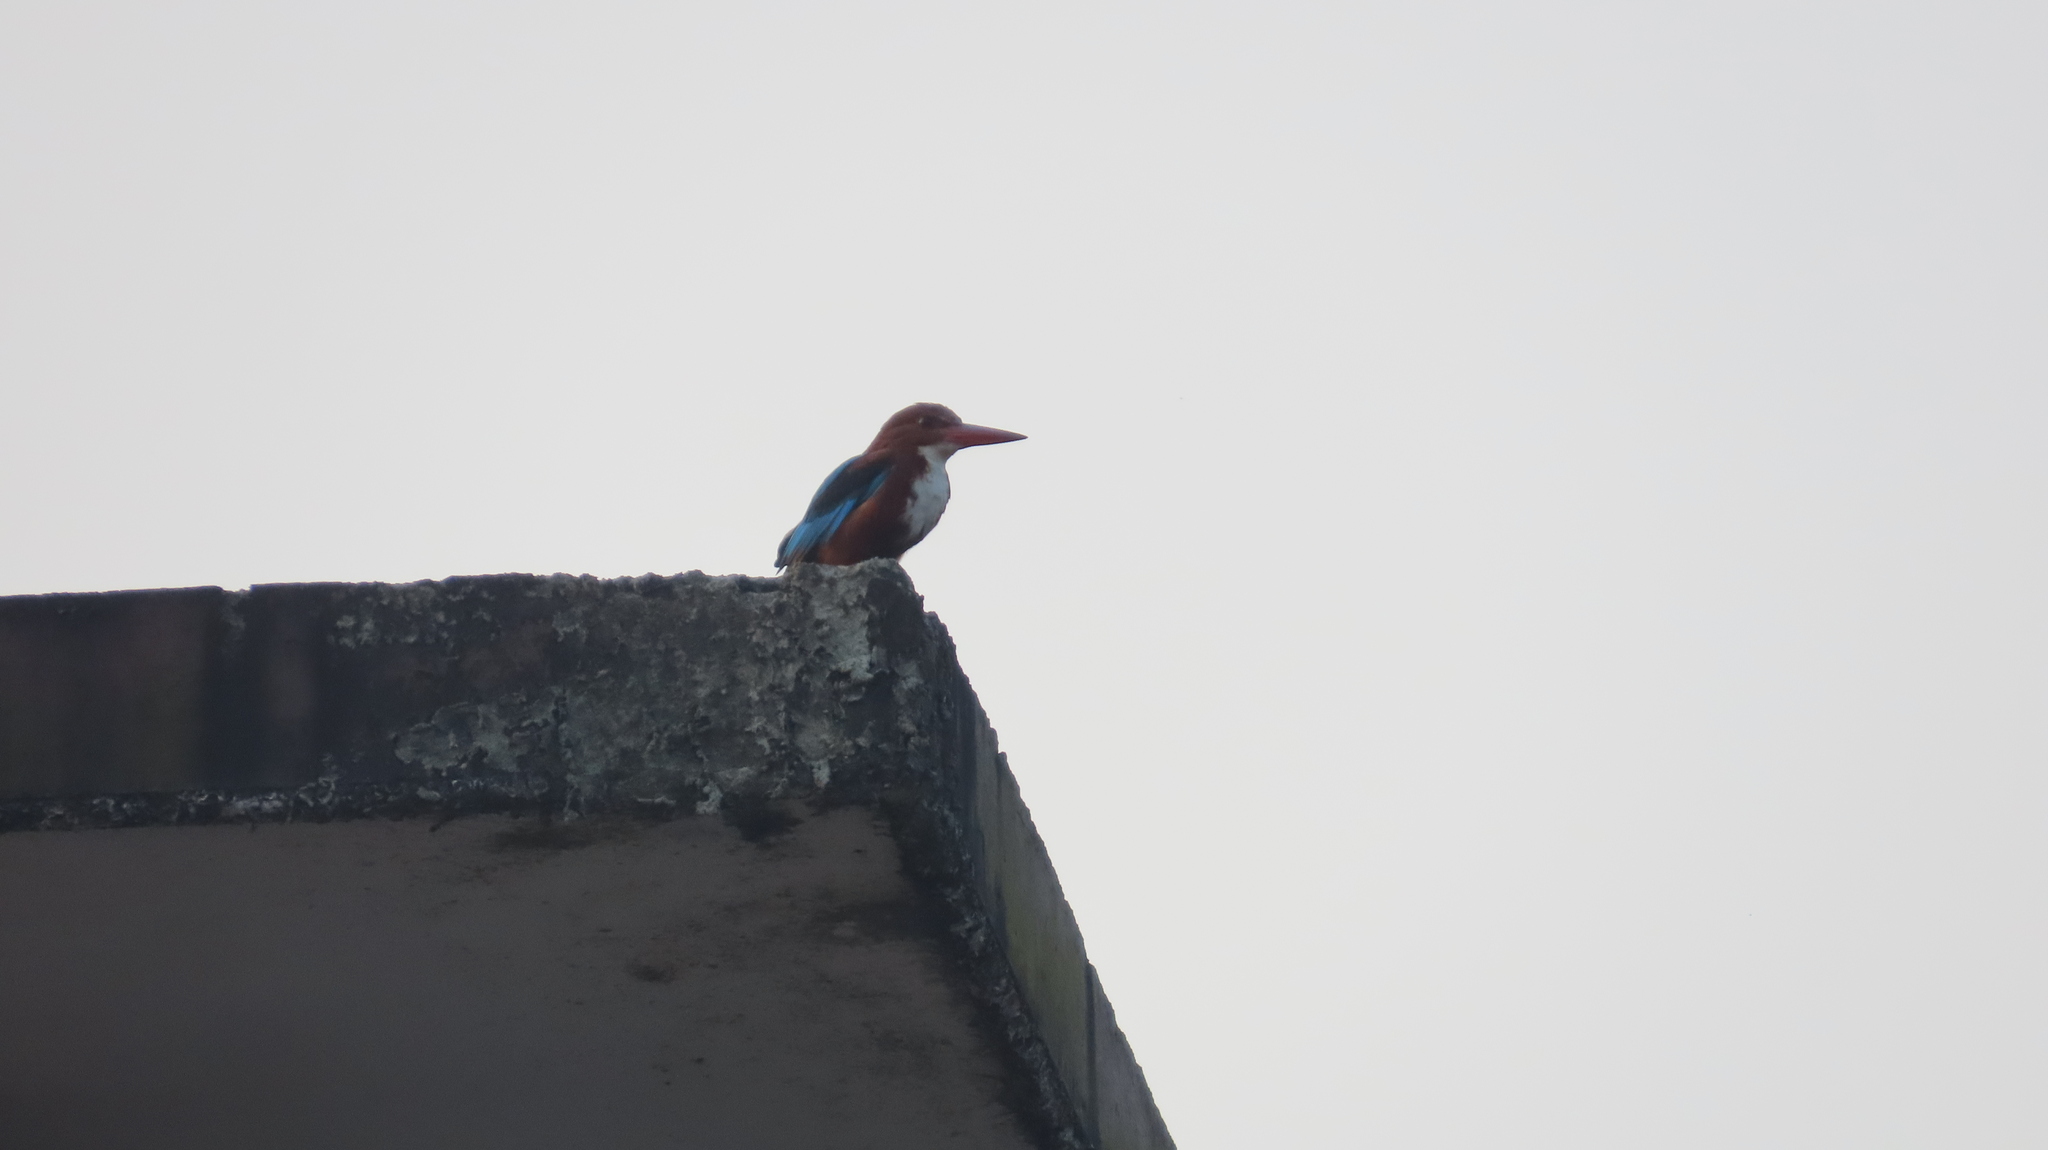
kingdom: Animalia
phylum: Chordata
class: Aves
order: Coraciiformes
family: Alcedinidae
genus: Halcyon
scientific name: Halcyon smyrnensis
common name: White-throated kingfisher
